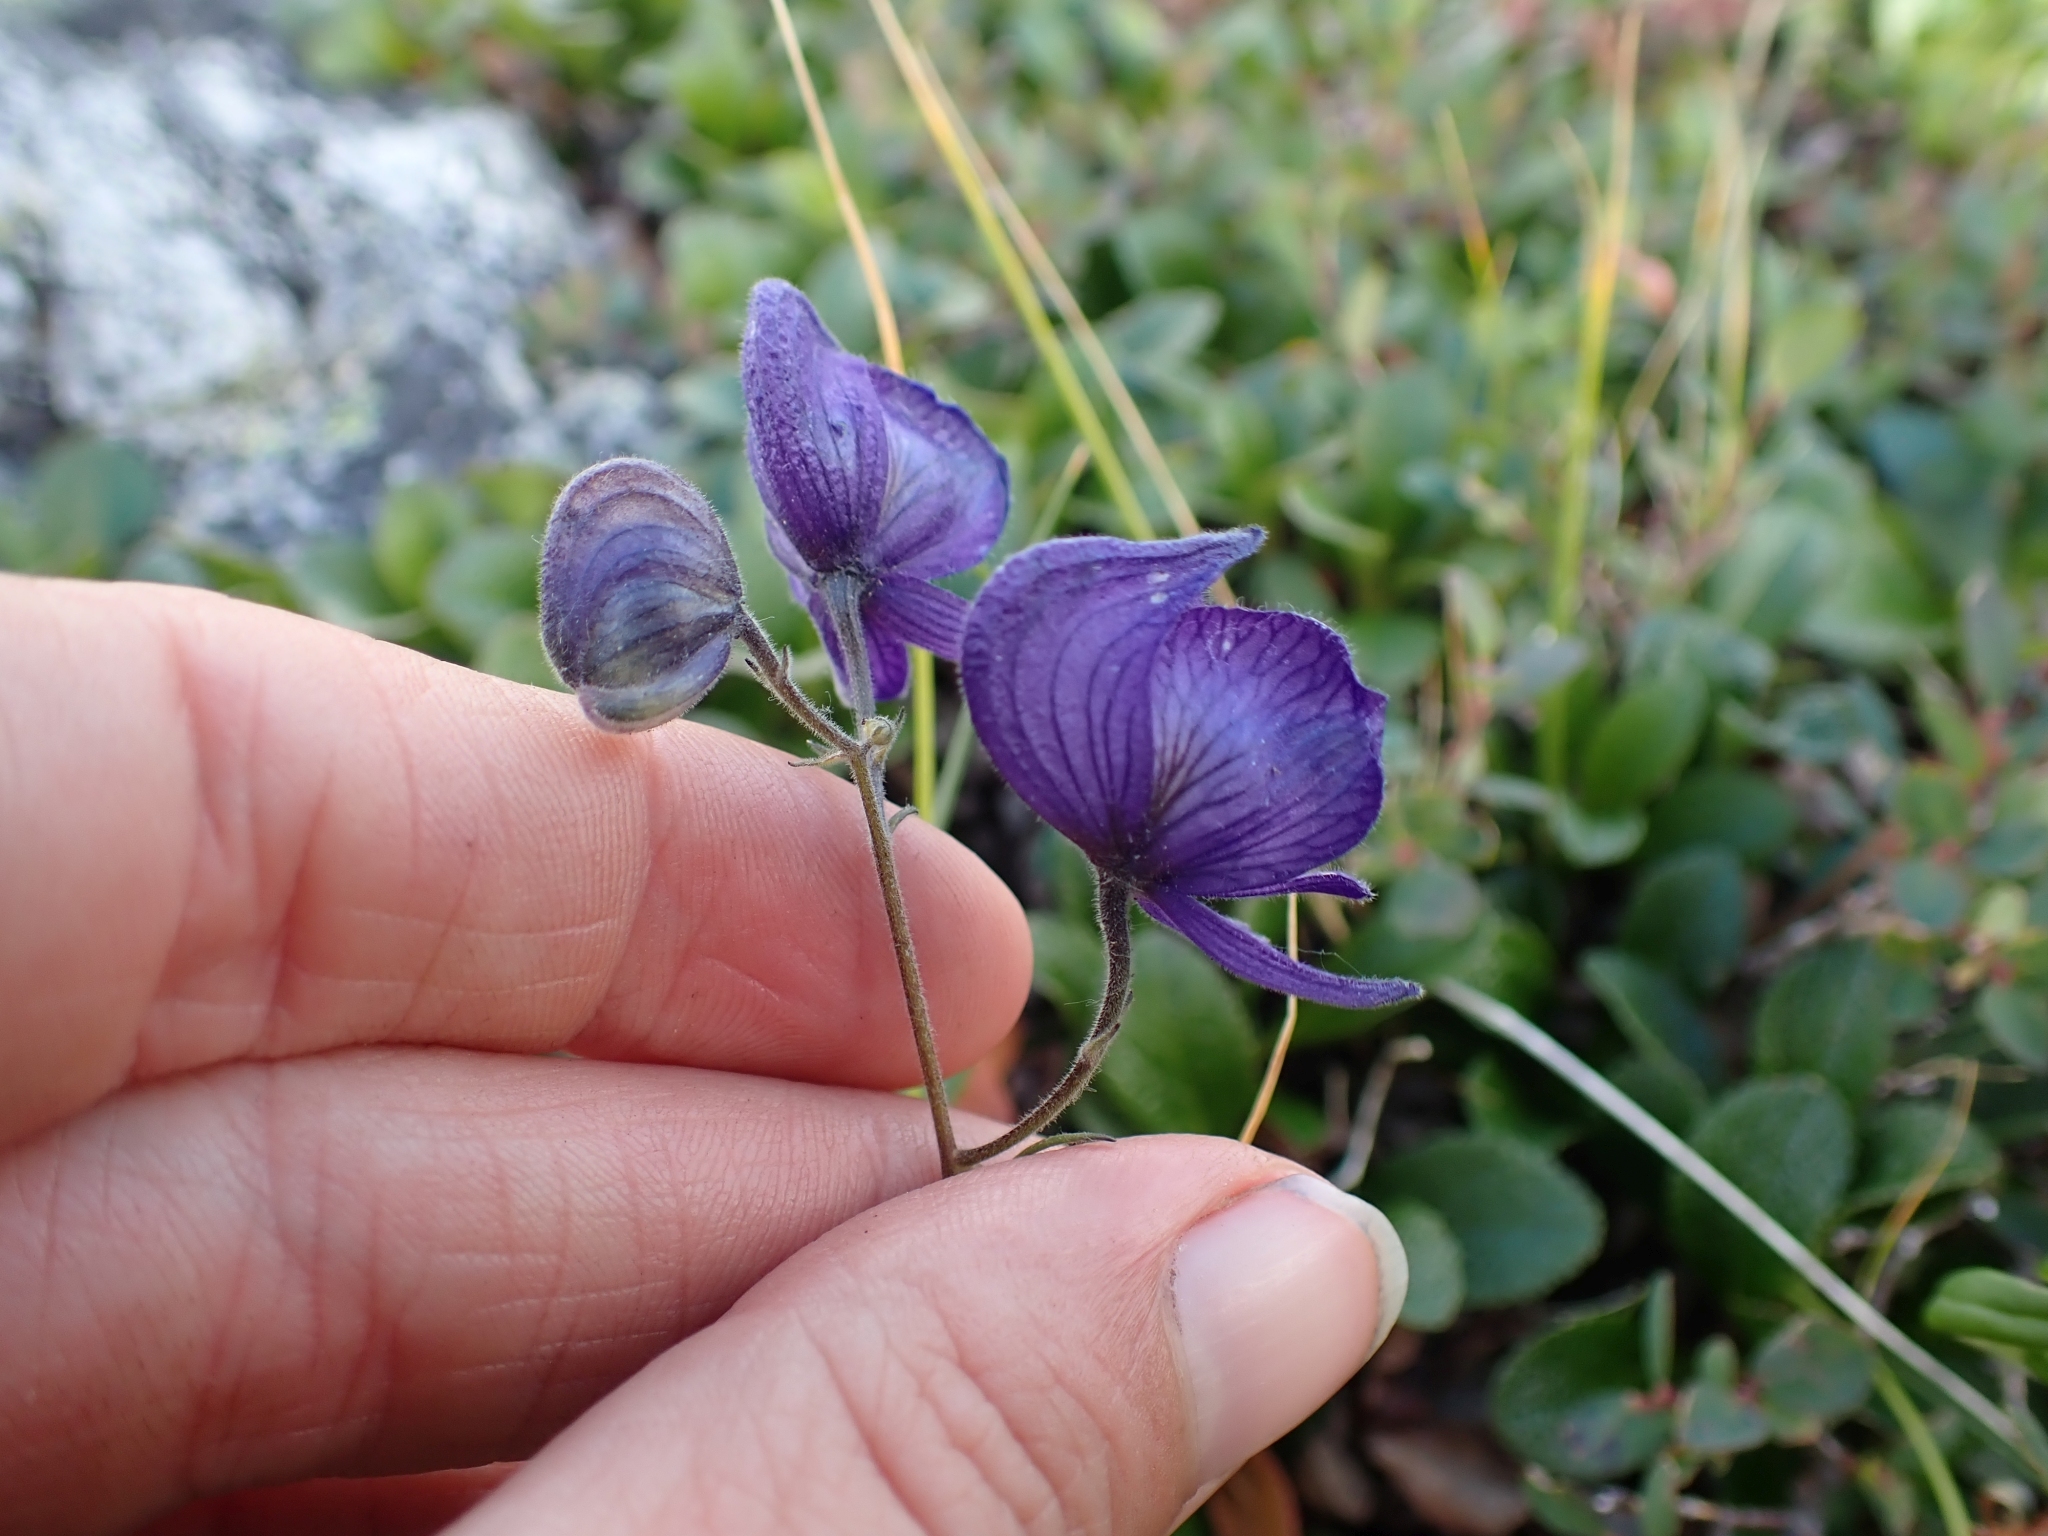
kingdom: Plantae
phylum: Tracheophyta
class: Magnoliopsida
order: Ranunculales
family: Ranunculaceae
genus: Aconitum
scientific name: Aconitum delphiniifolium
